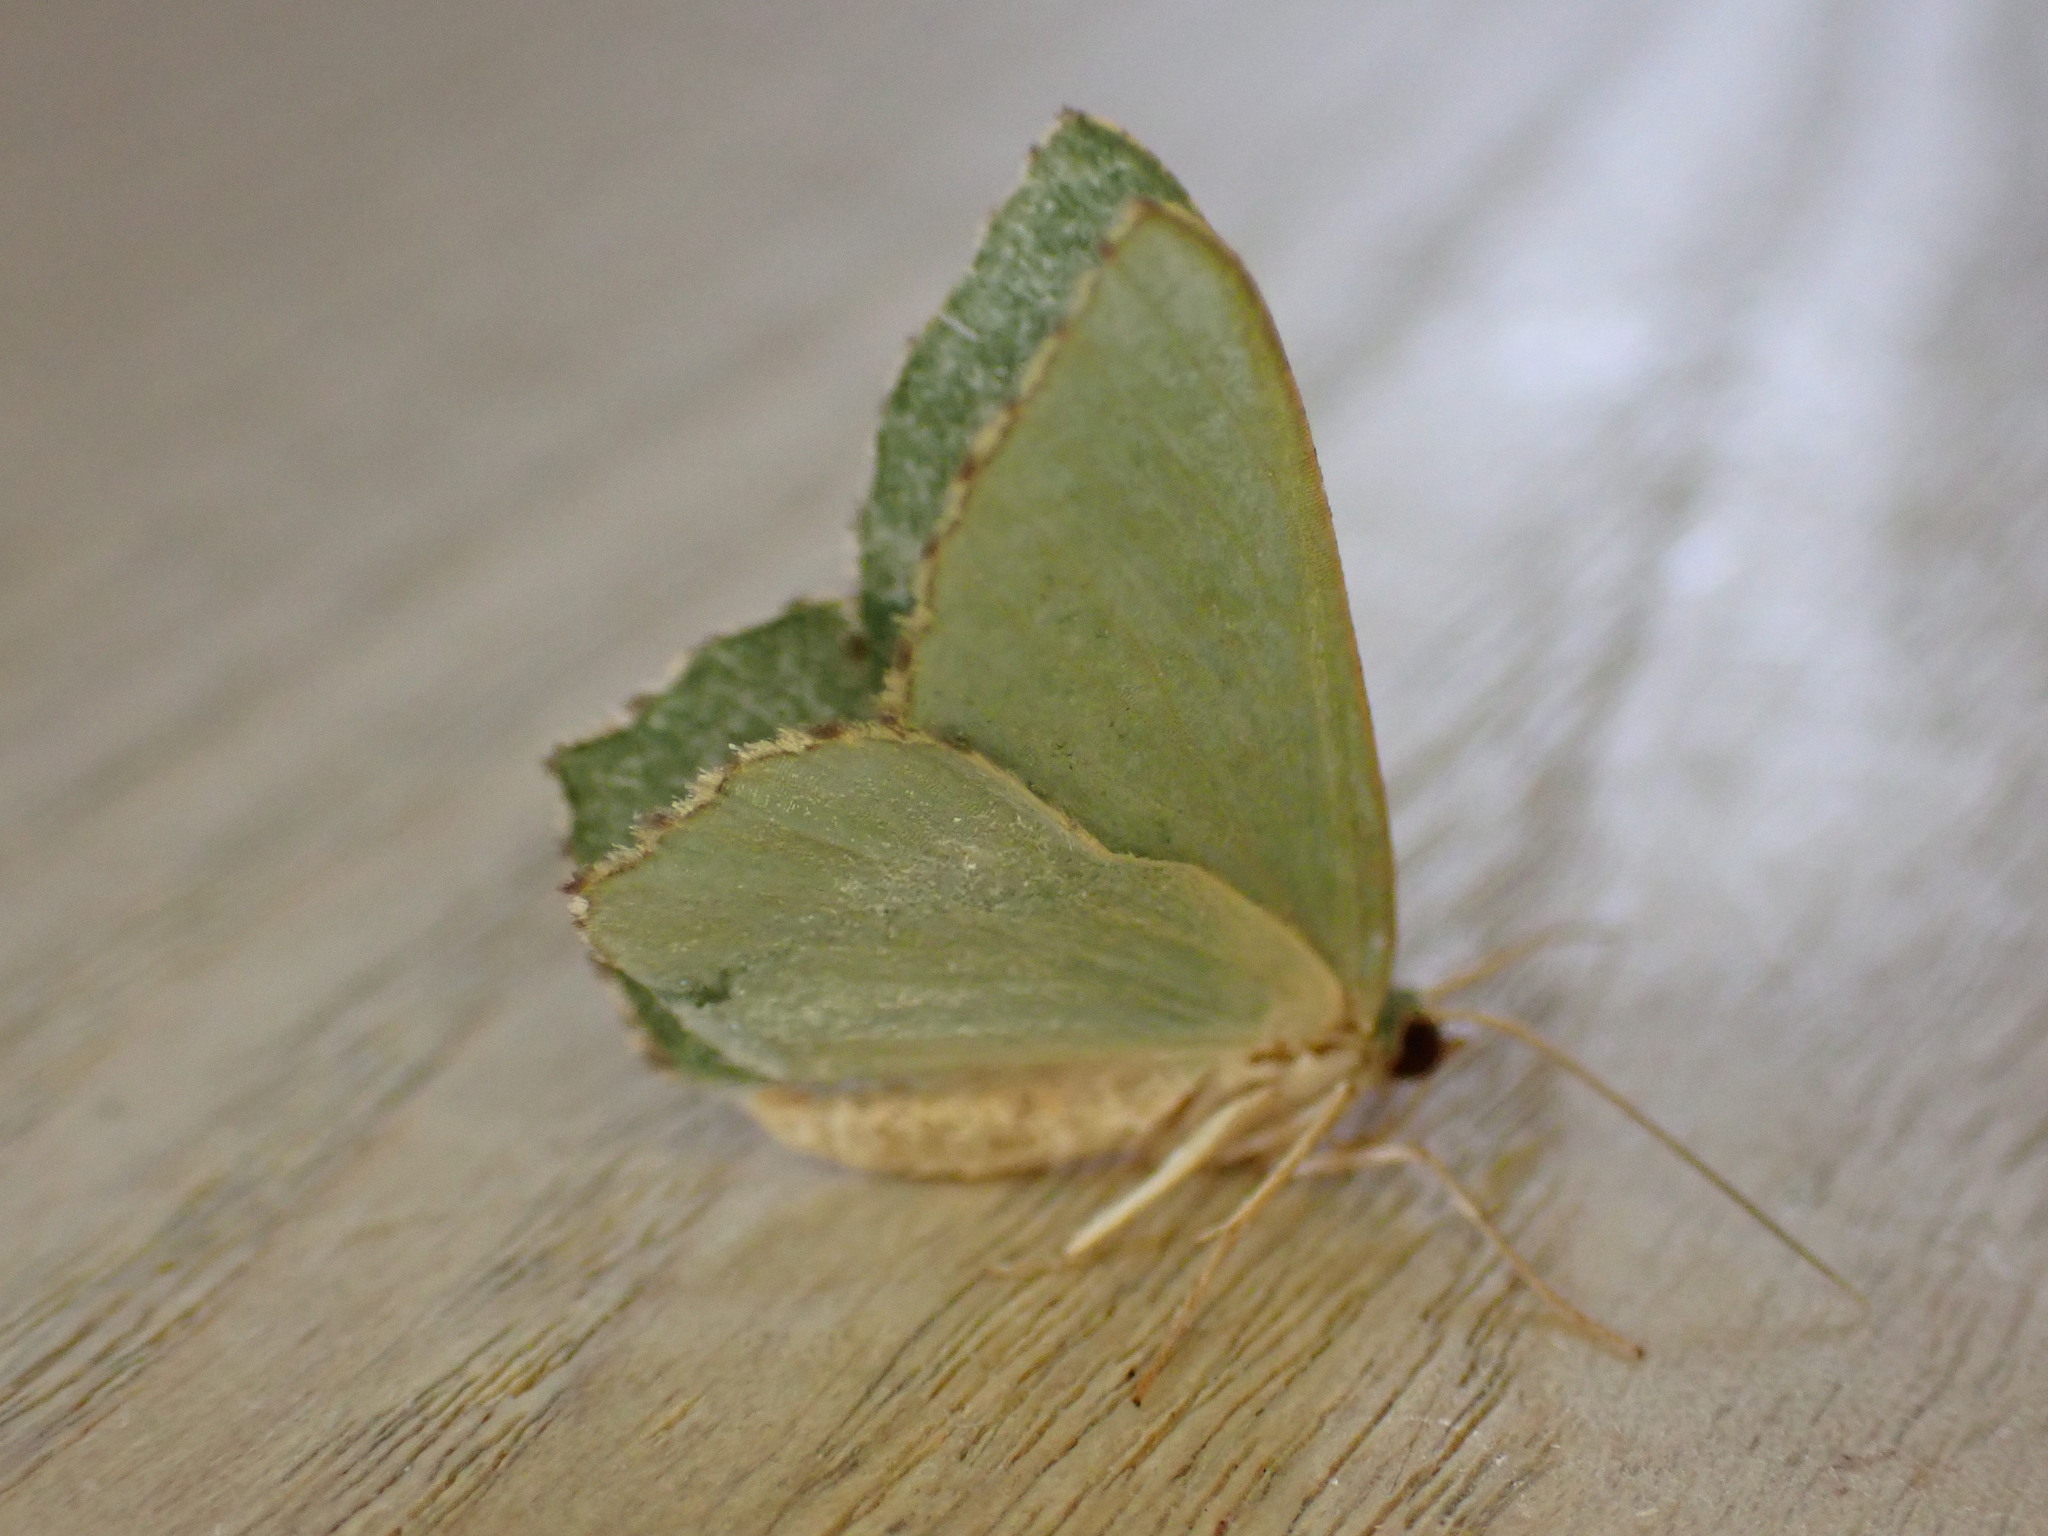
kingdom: Animalia
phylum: Arthropoda
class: Insecta
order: Lepidoptera
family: Geometridae
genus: Hemithea
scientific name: Hemithea aestivaria
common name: Common emerald
